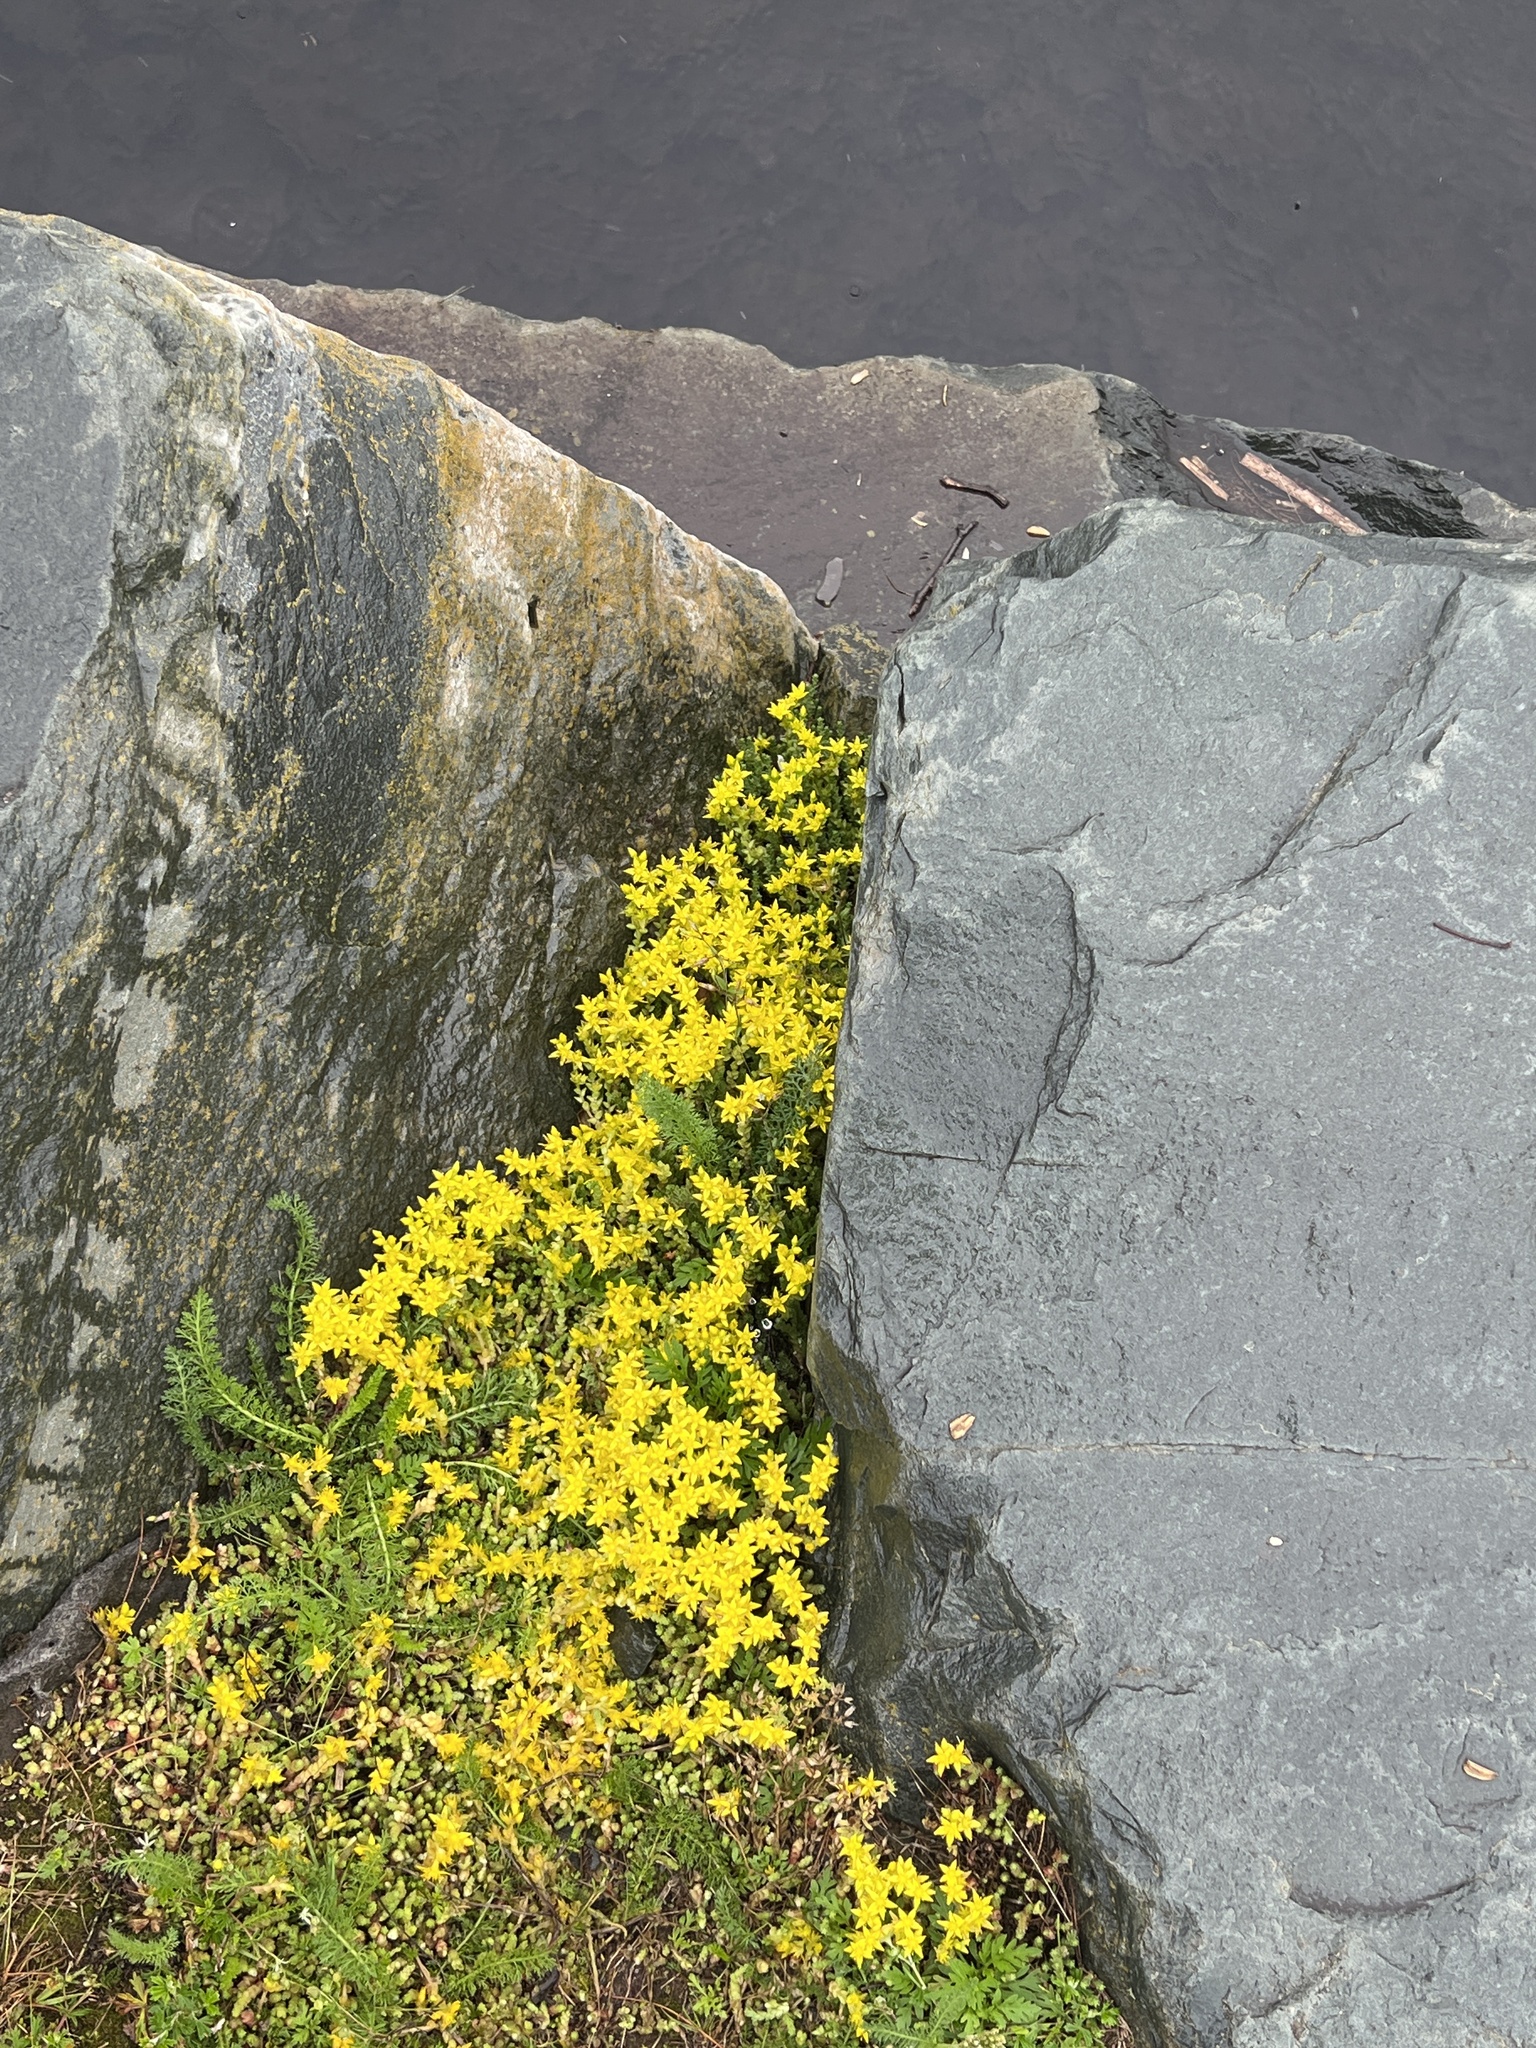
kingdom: Plantae
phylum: Tracheophyta
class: Magnoliopsida
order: Saxifragales
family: Crassulaceae
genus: Sedum
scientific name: Sedum acre
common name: Biting stonecrop
